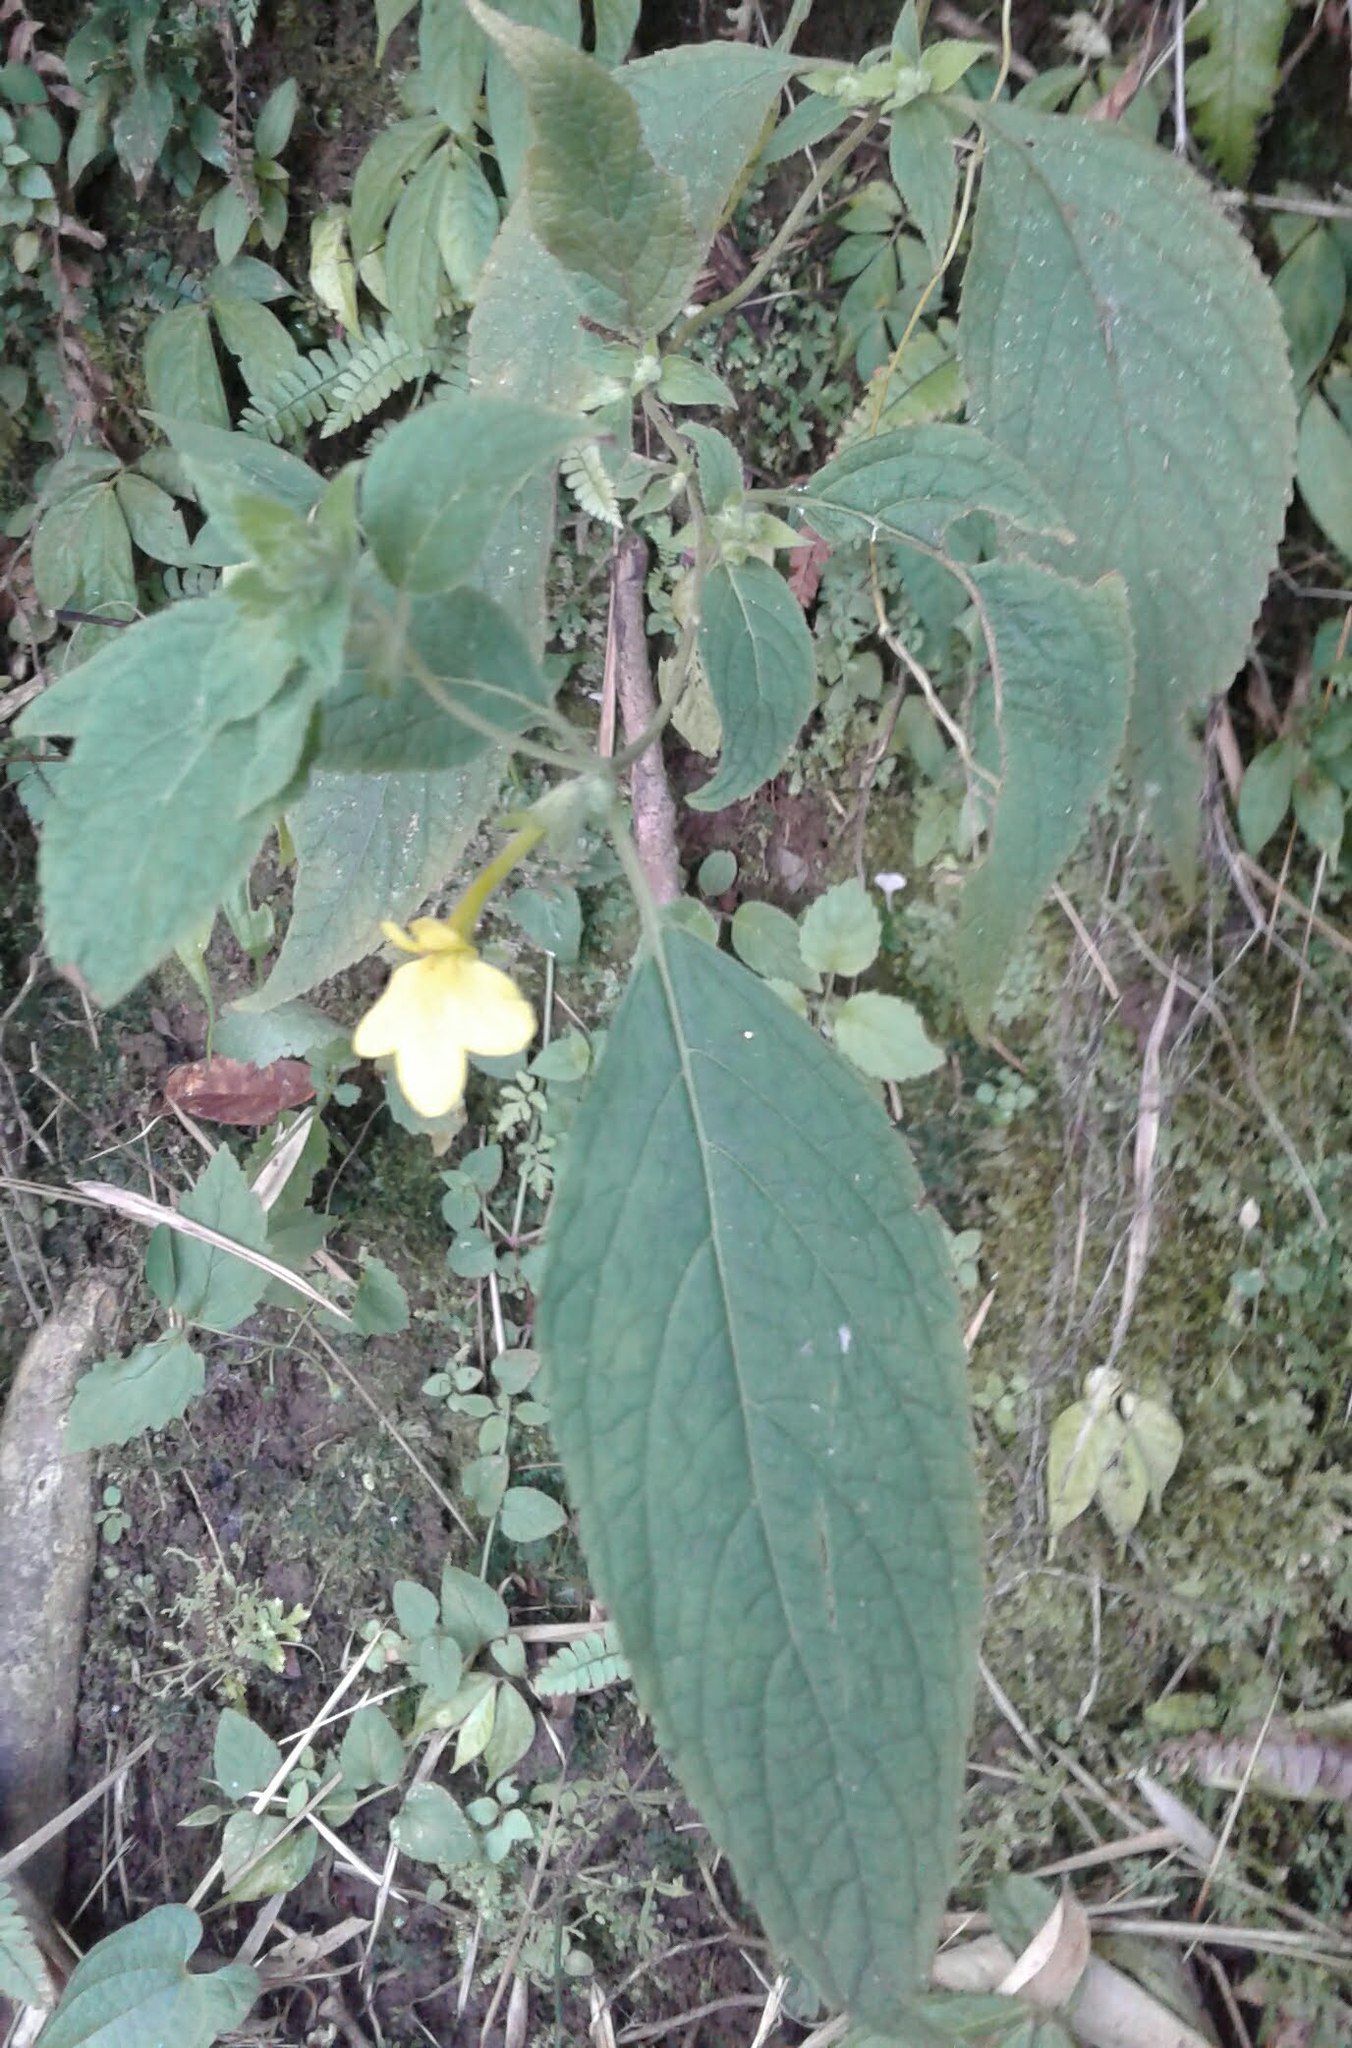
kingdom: Plantae
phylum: Tracheophyta
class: Magnoliopsida
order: Lamiales
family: Orobanchaceae
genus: Lindenbergia
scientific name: Lindenbergia grandiflora
